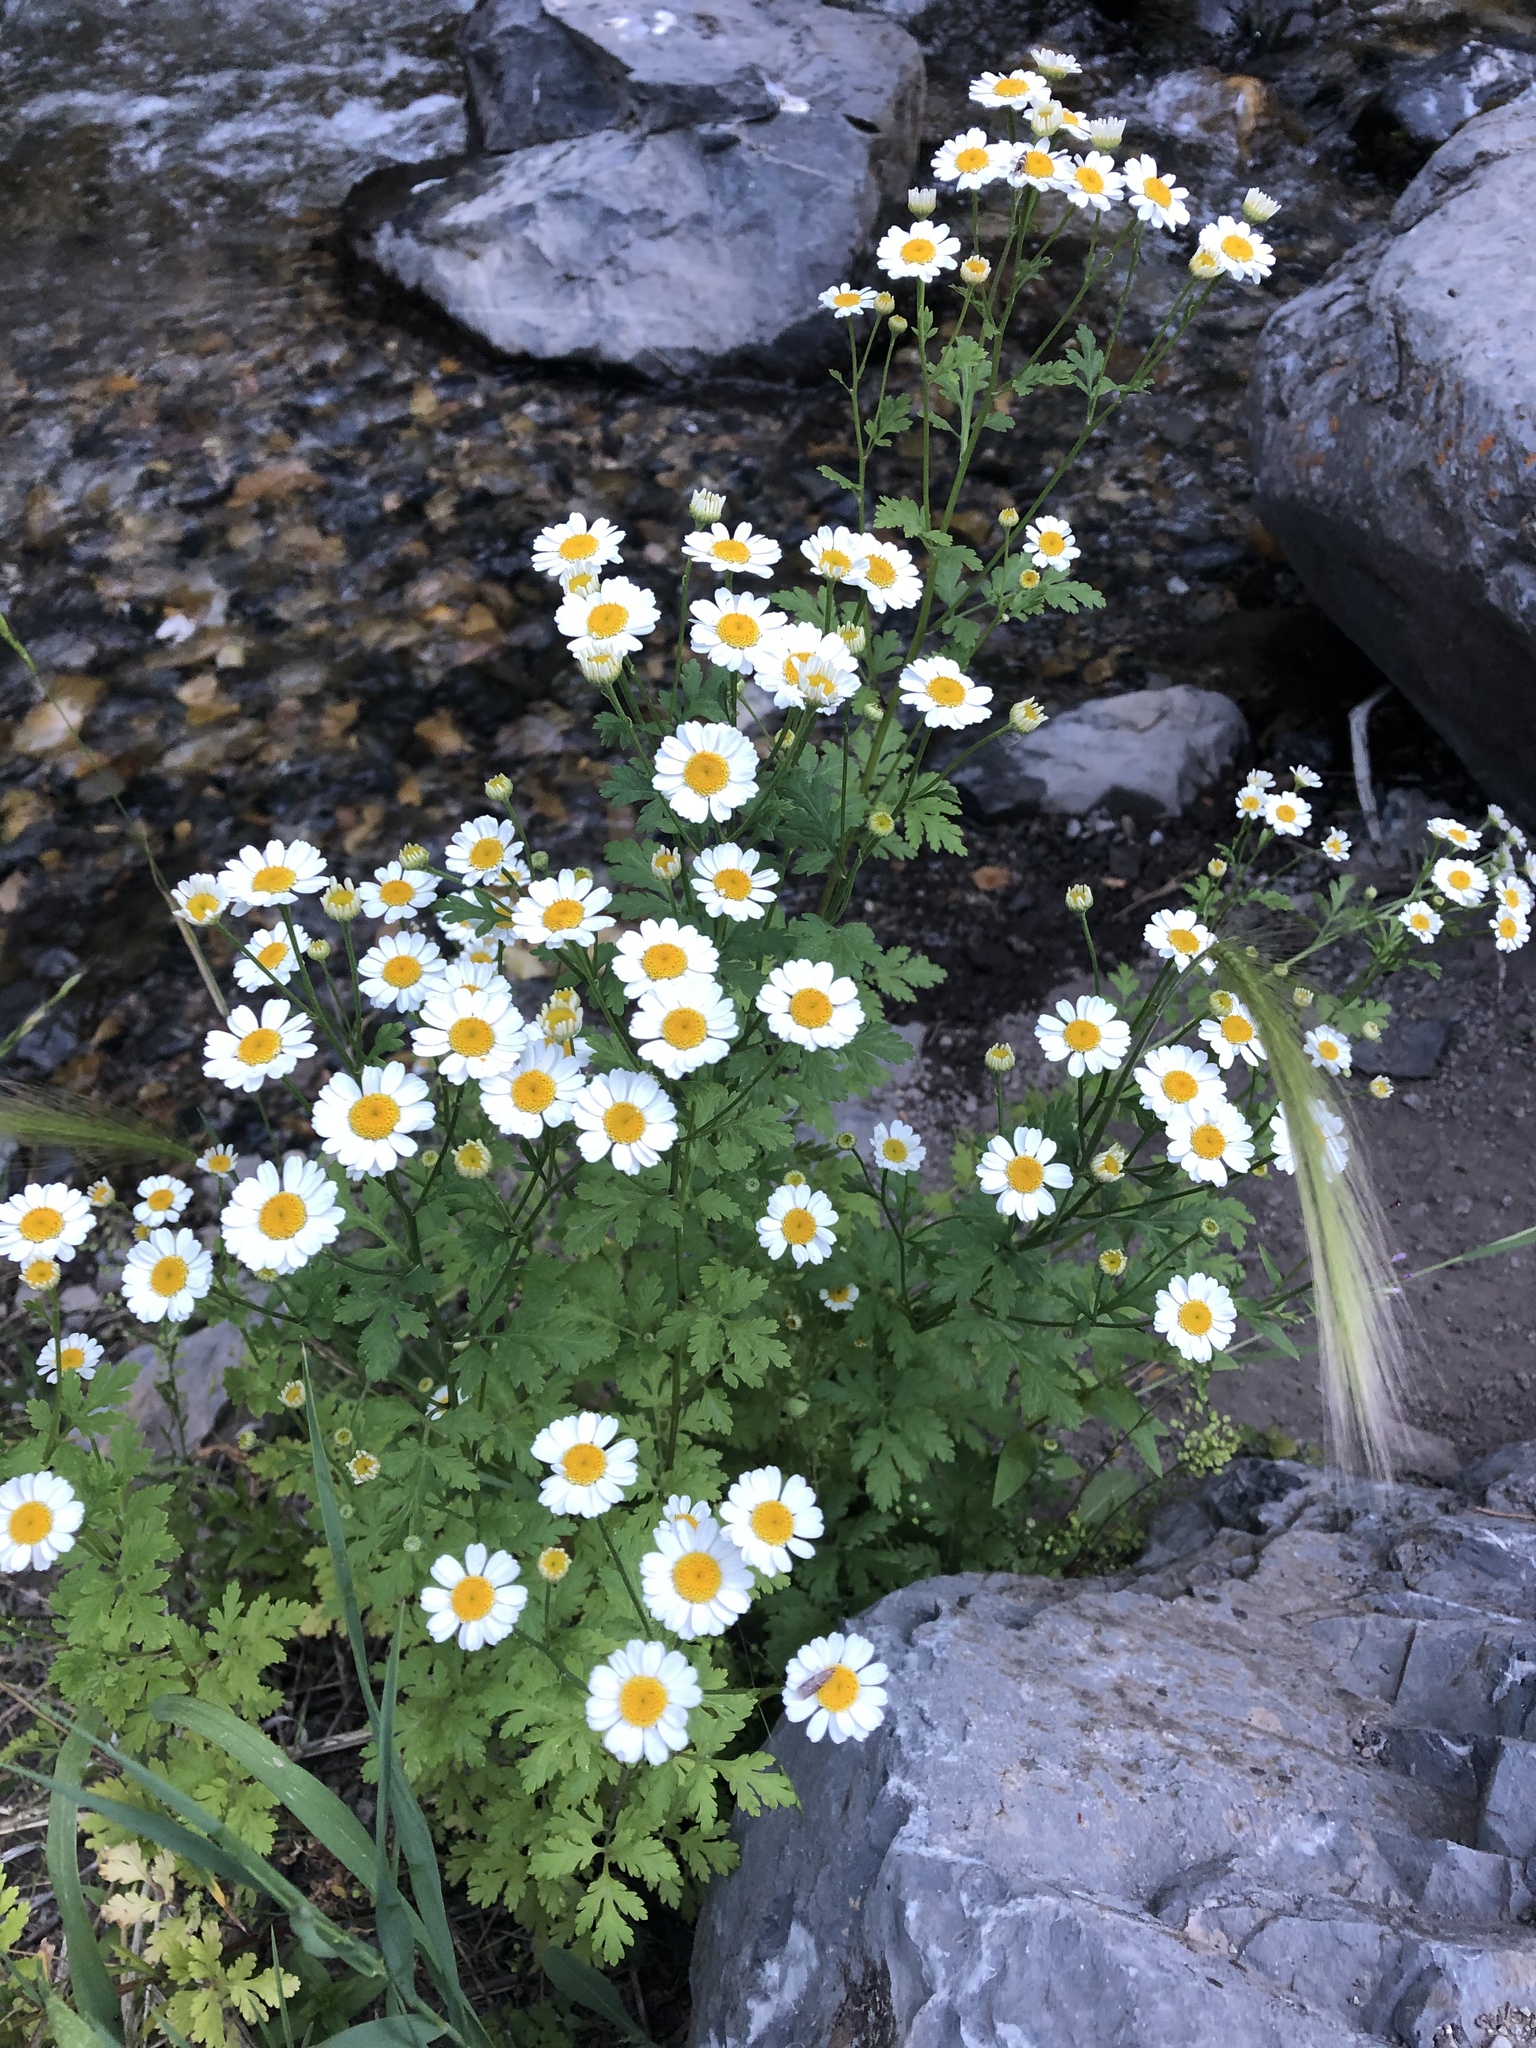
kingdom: Plantae
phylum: Tracheophyta
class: Magnoliopsida
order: Asterales
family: Asteraceae
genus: Tanacetum
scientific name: Tanacetum parthenium
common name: Feverfew
